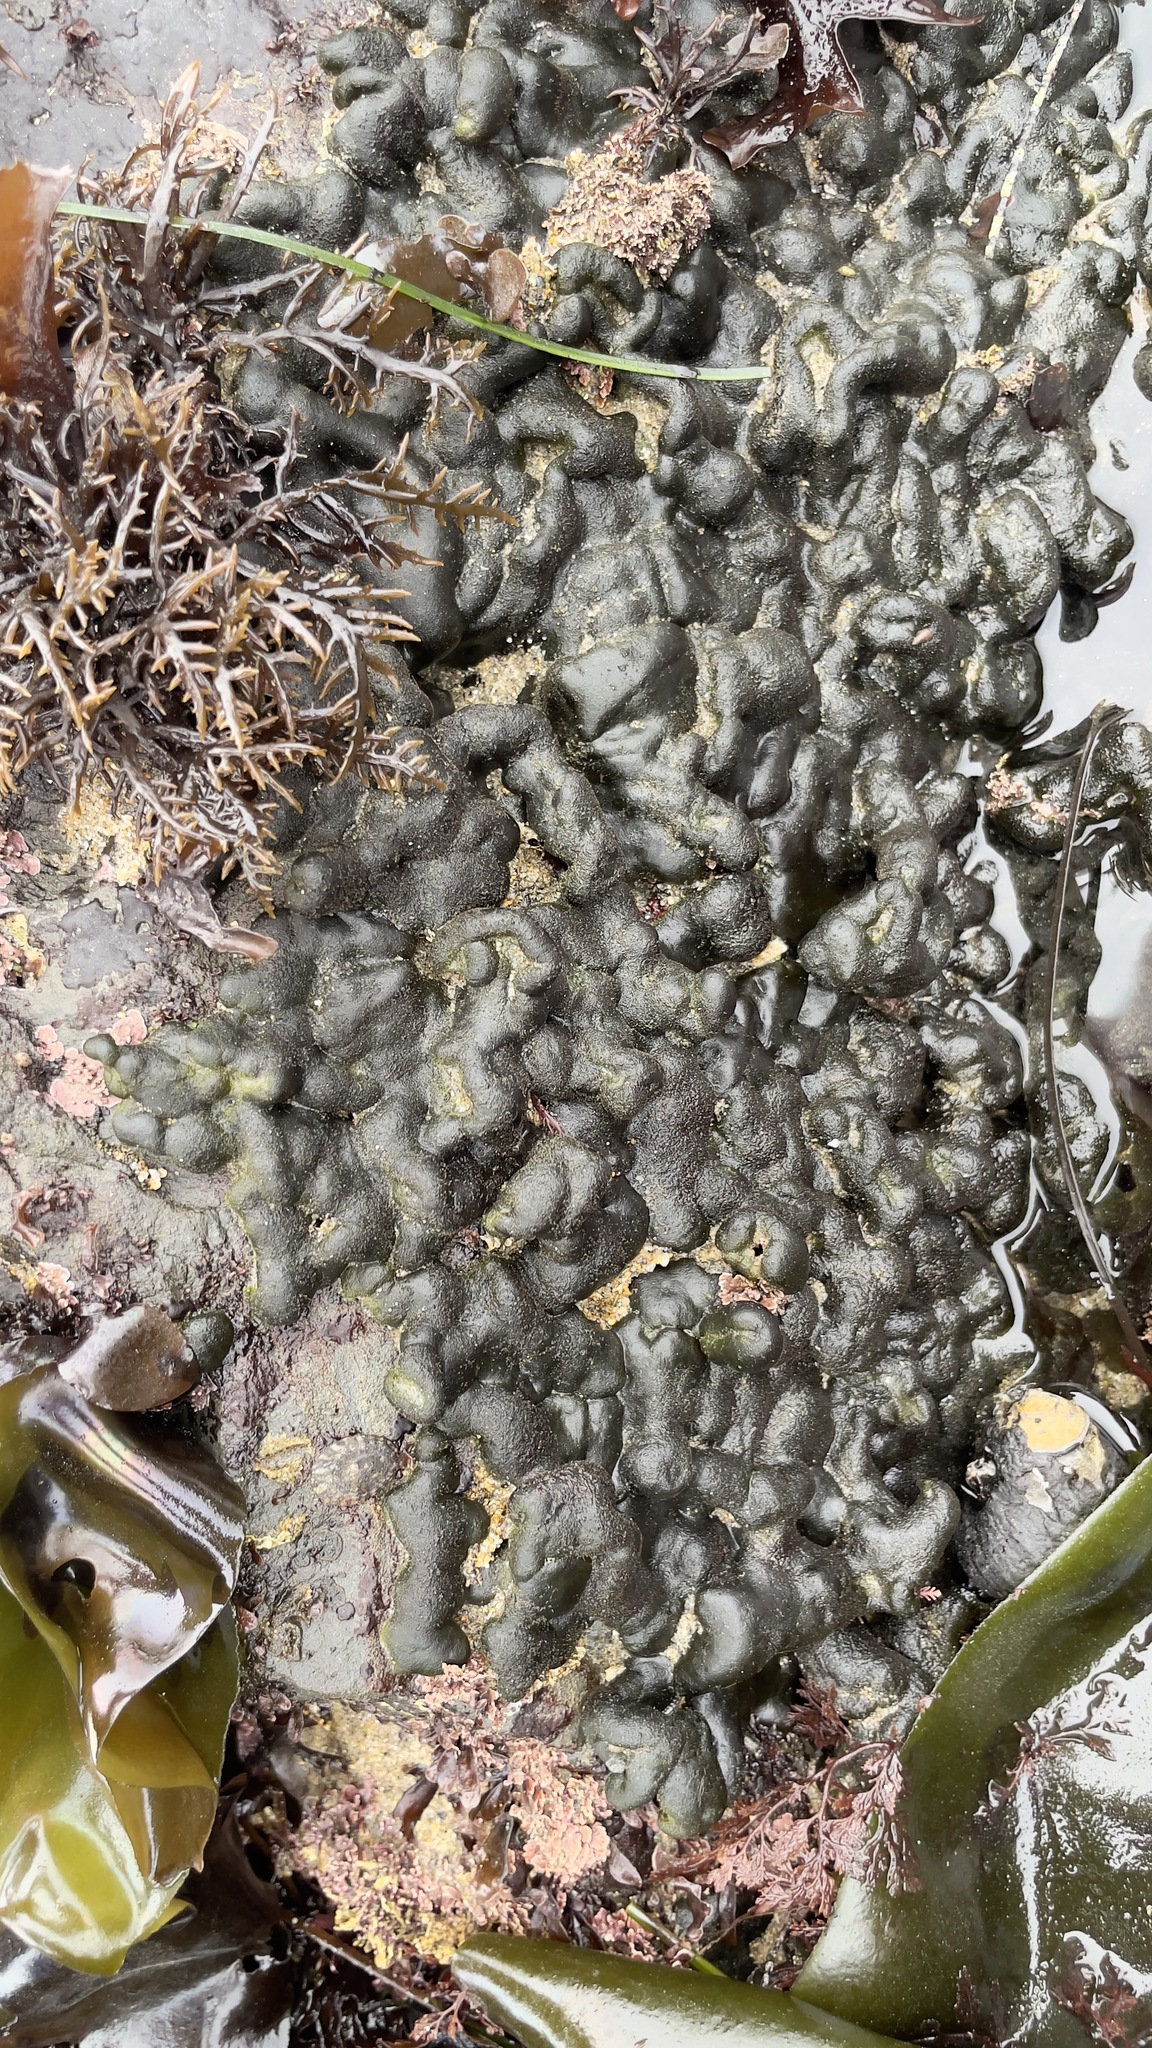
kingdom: Plantae
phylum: Chlorophyta
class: Ulvophyceae
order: Bryopsidales
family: Codiaceae
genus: Codium
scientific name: Codium setchellii
